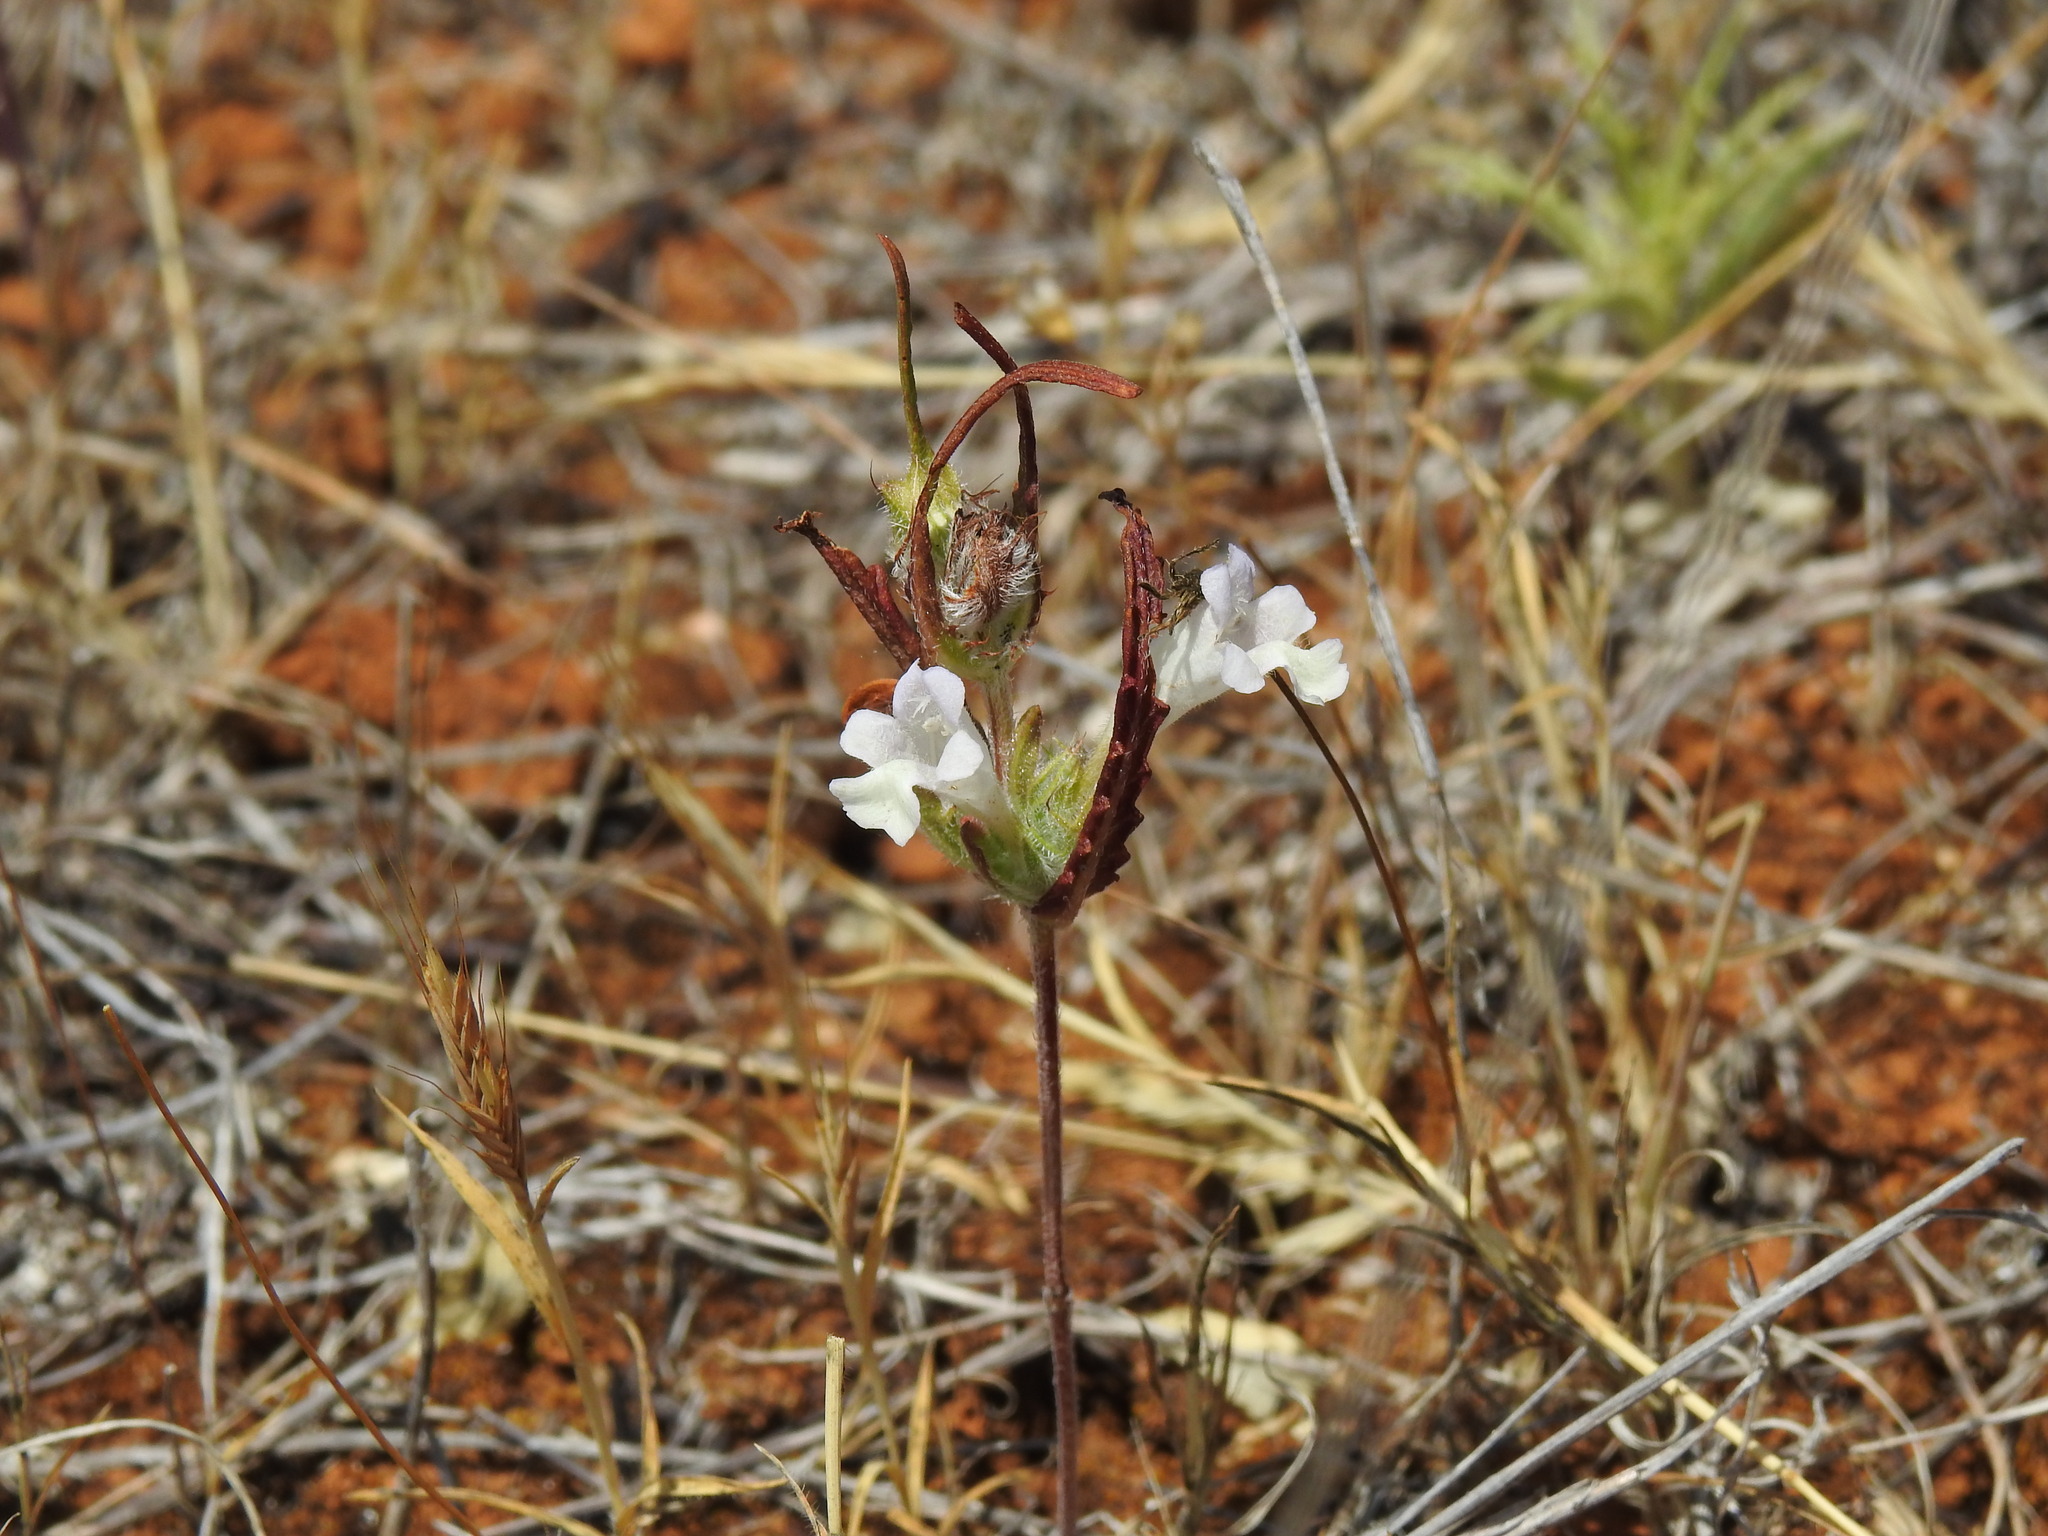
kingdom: Plantae
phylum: Tracheophyta
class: Magnoliopsida
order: Lamiales
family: Lamiaceae
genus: Cleonia
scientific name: Cleonia lusitanica
